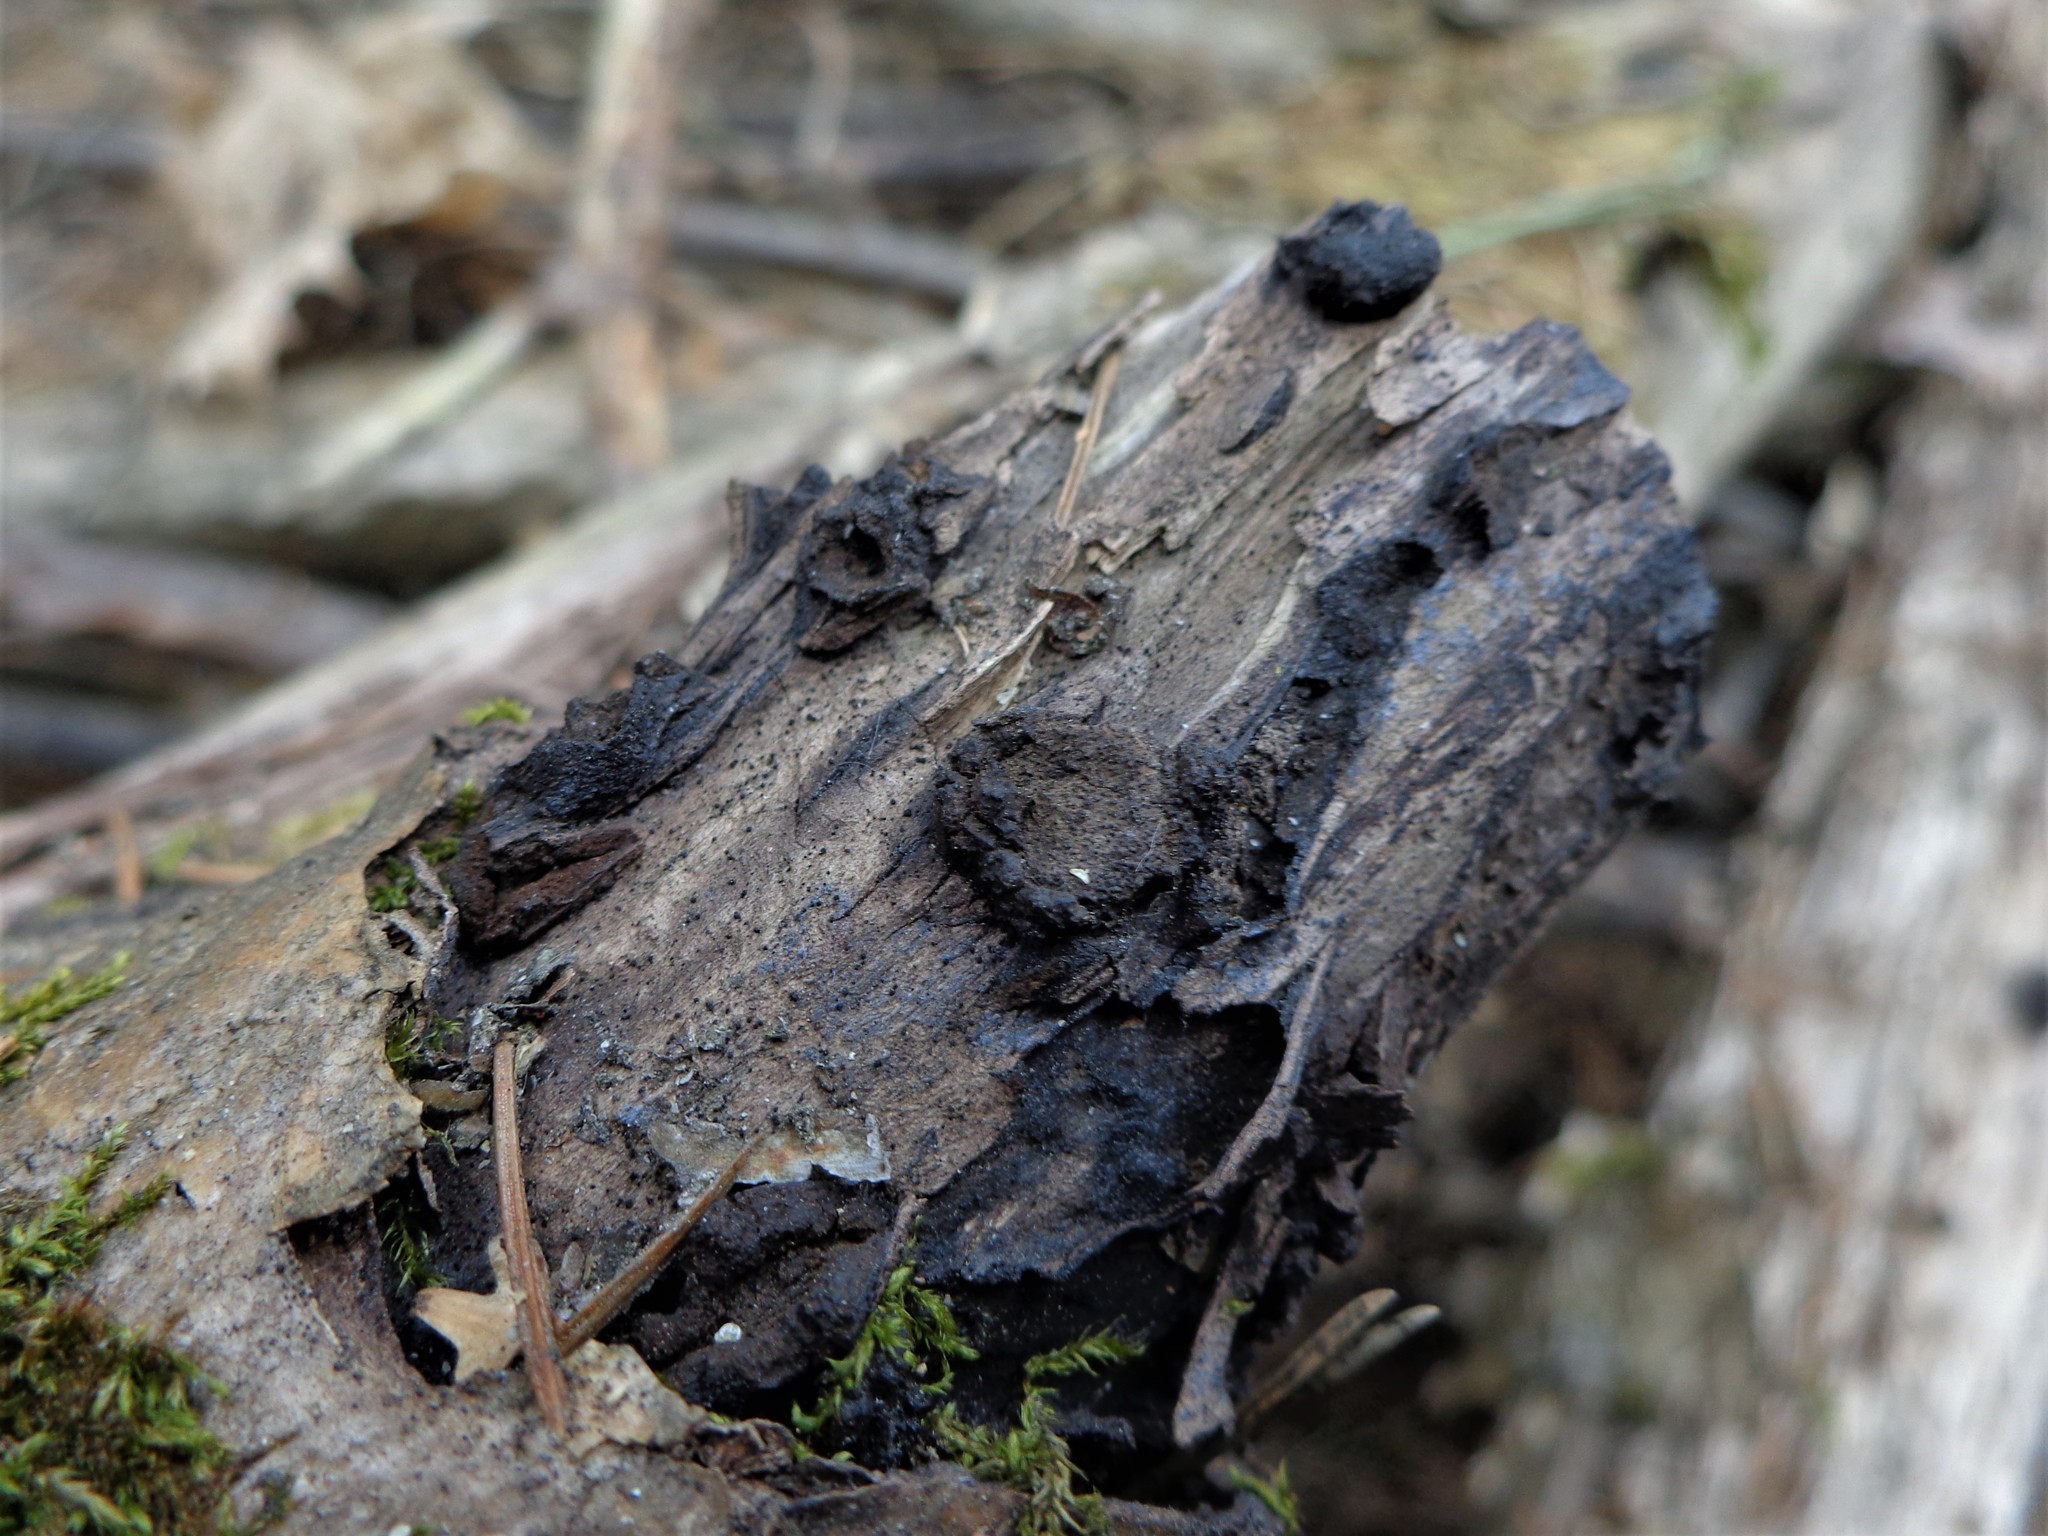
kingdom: Fungi
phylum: Ascomycota
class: Sordariomycetes
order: Xylariales
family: Graphostromataceae
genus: Biscogniauxia
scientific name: Biscogniauxia repanda
